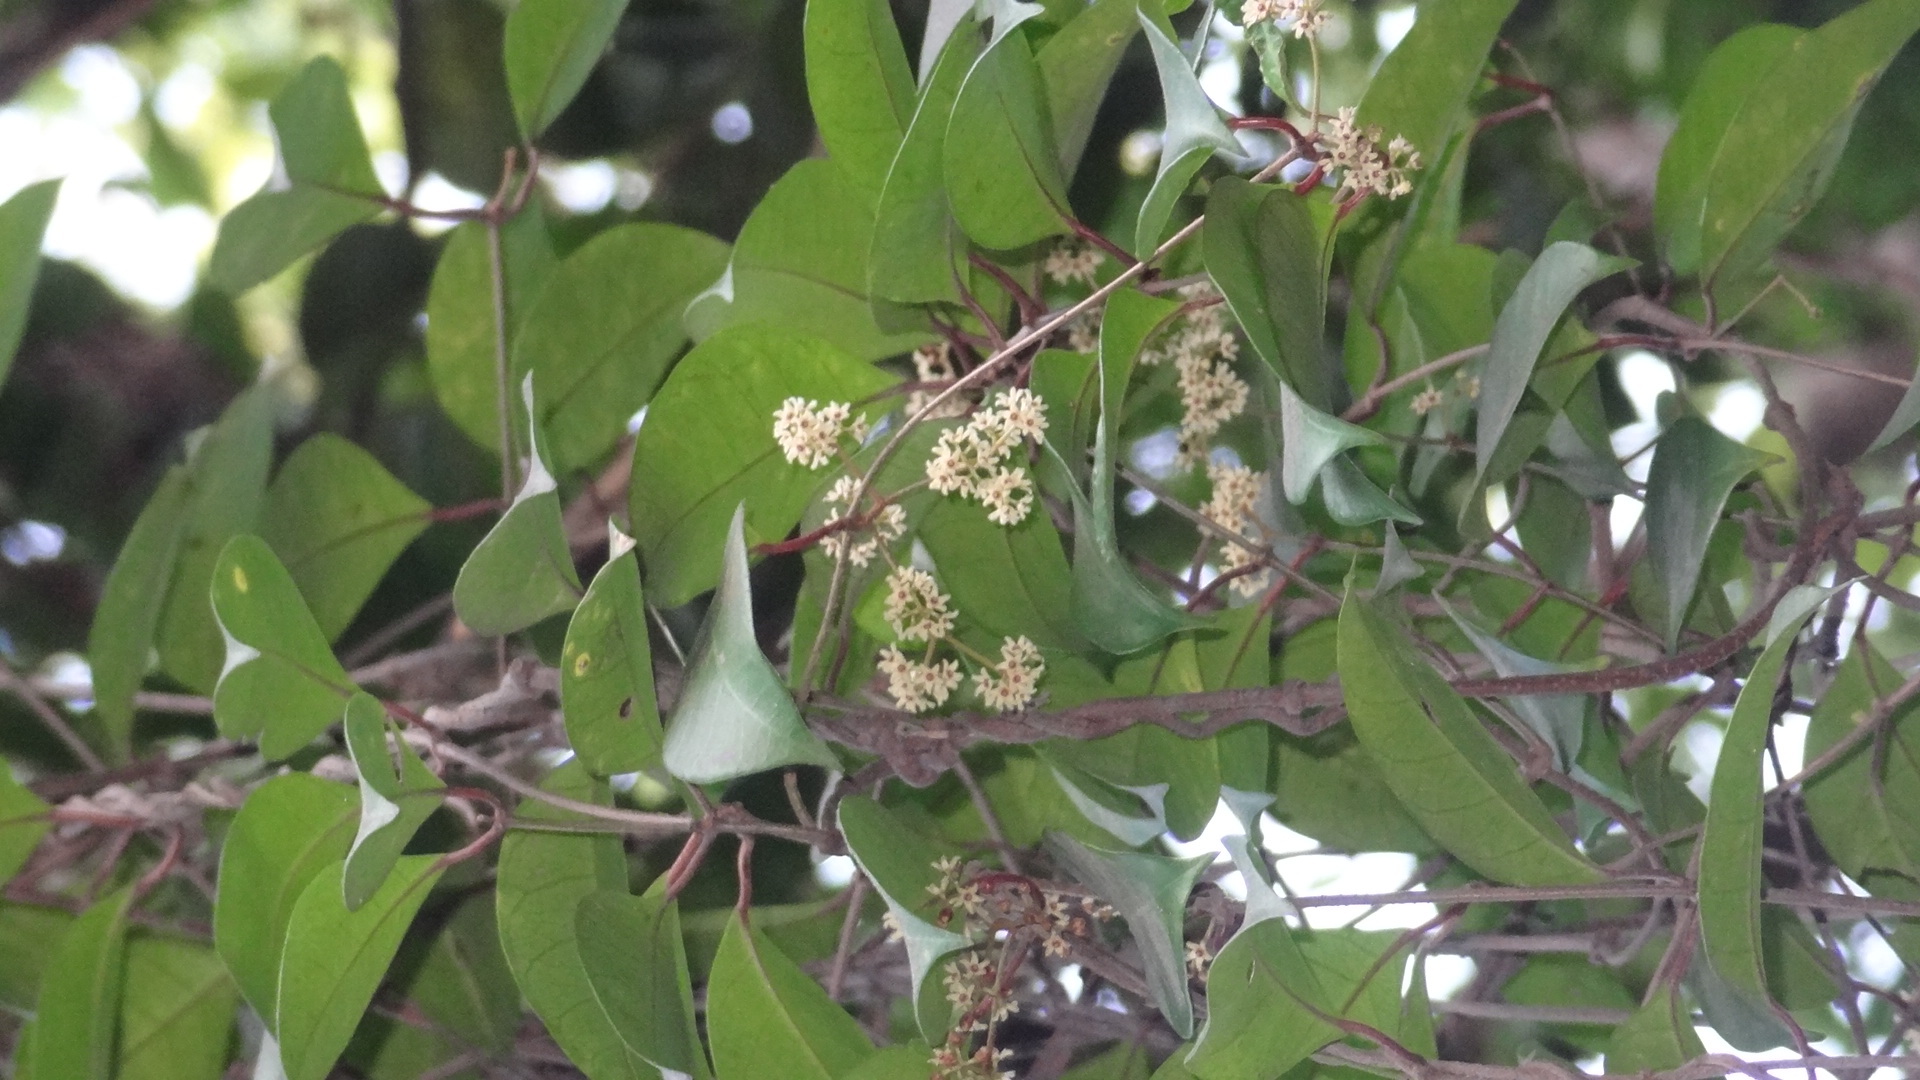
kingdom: Plantae
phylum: Tracheophyta
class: Magnoliopsida
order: Gentianales
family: Apocynaceae
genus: Genianthus
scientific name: Genianthus micranthus
